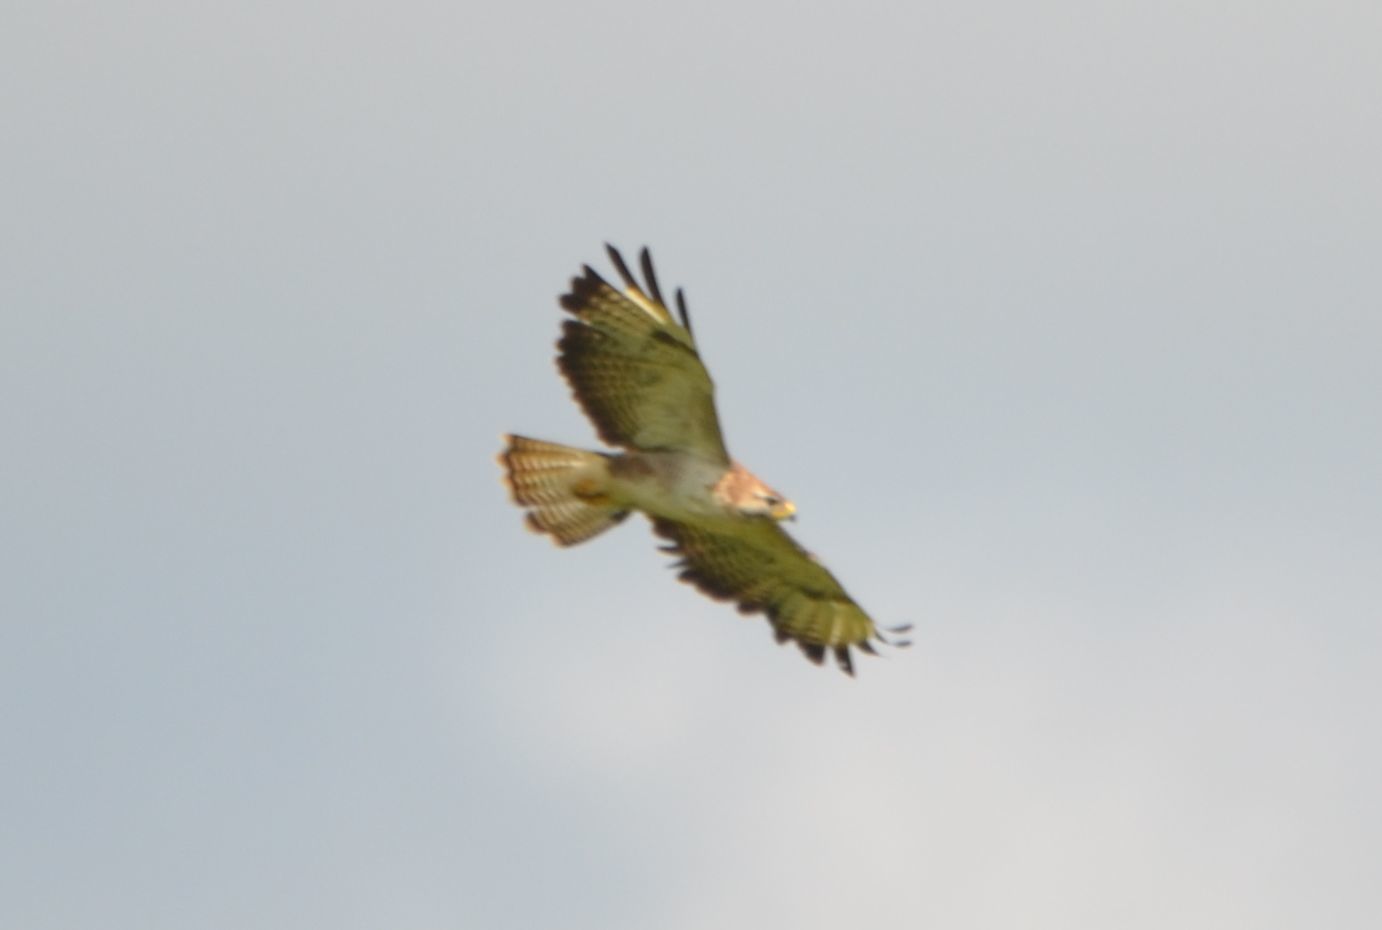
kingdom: Animalia
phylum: Chordata
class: Aves
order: Accipitriformes
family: Accipitridae
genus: Buteo
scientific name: Buteo buteo
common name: Common buzzard
